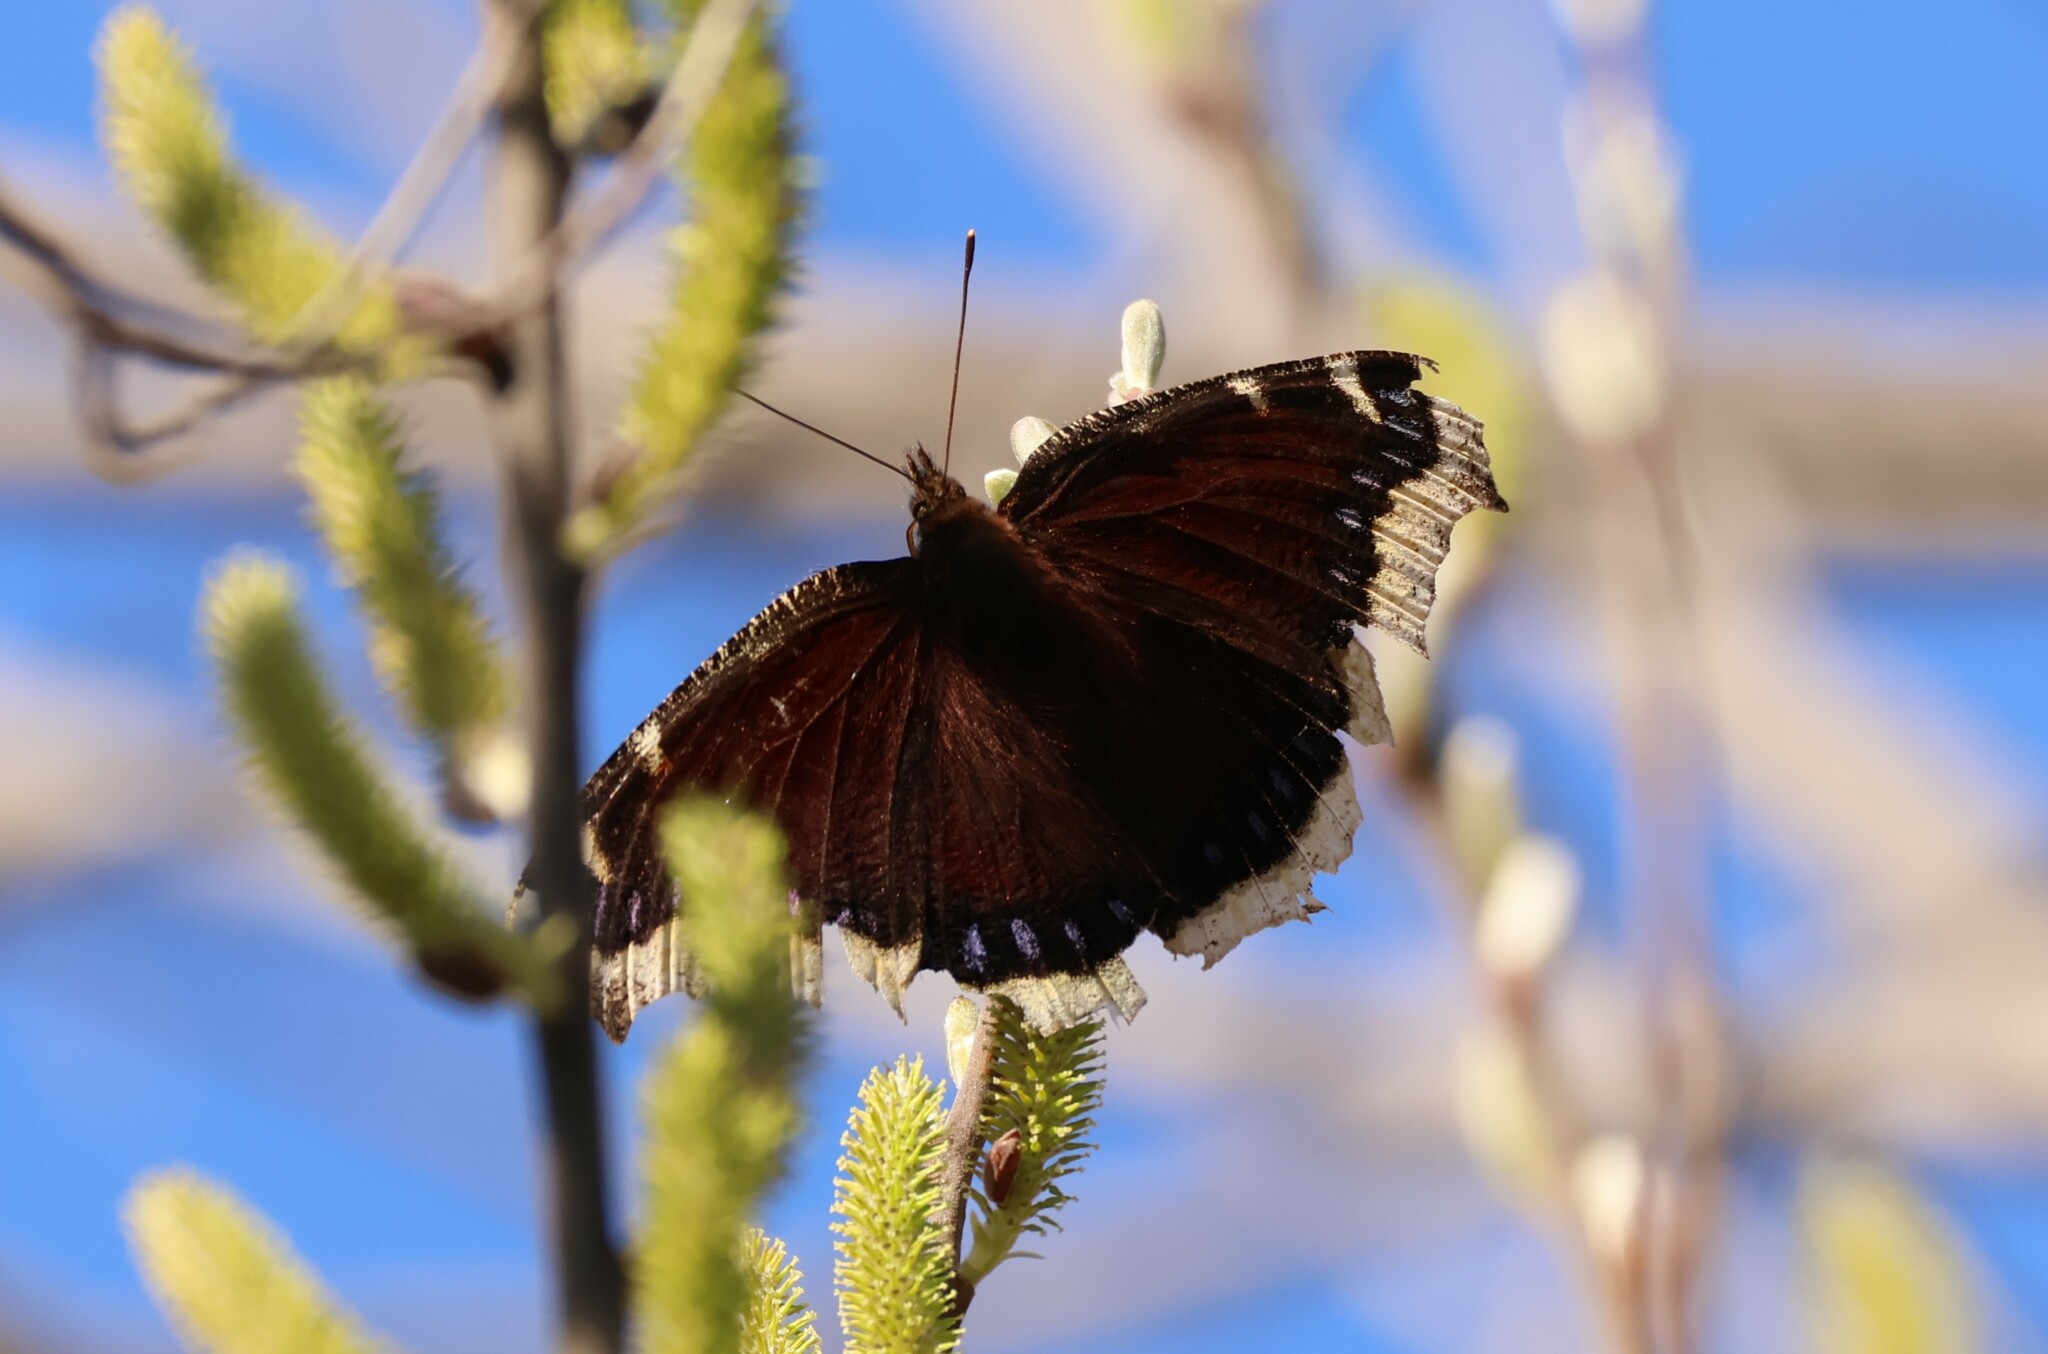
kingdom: Animalia
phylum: Arthropoda
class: Insecta
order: Lepidoptera
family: Nymphalidae
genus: Nymphalis
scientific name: Nymphalis antiopa
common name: Camberwell beauty
